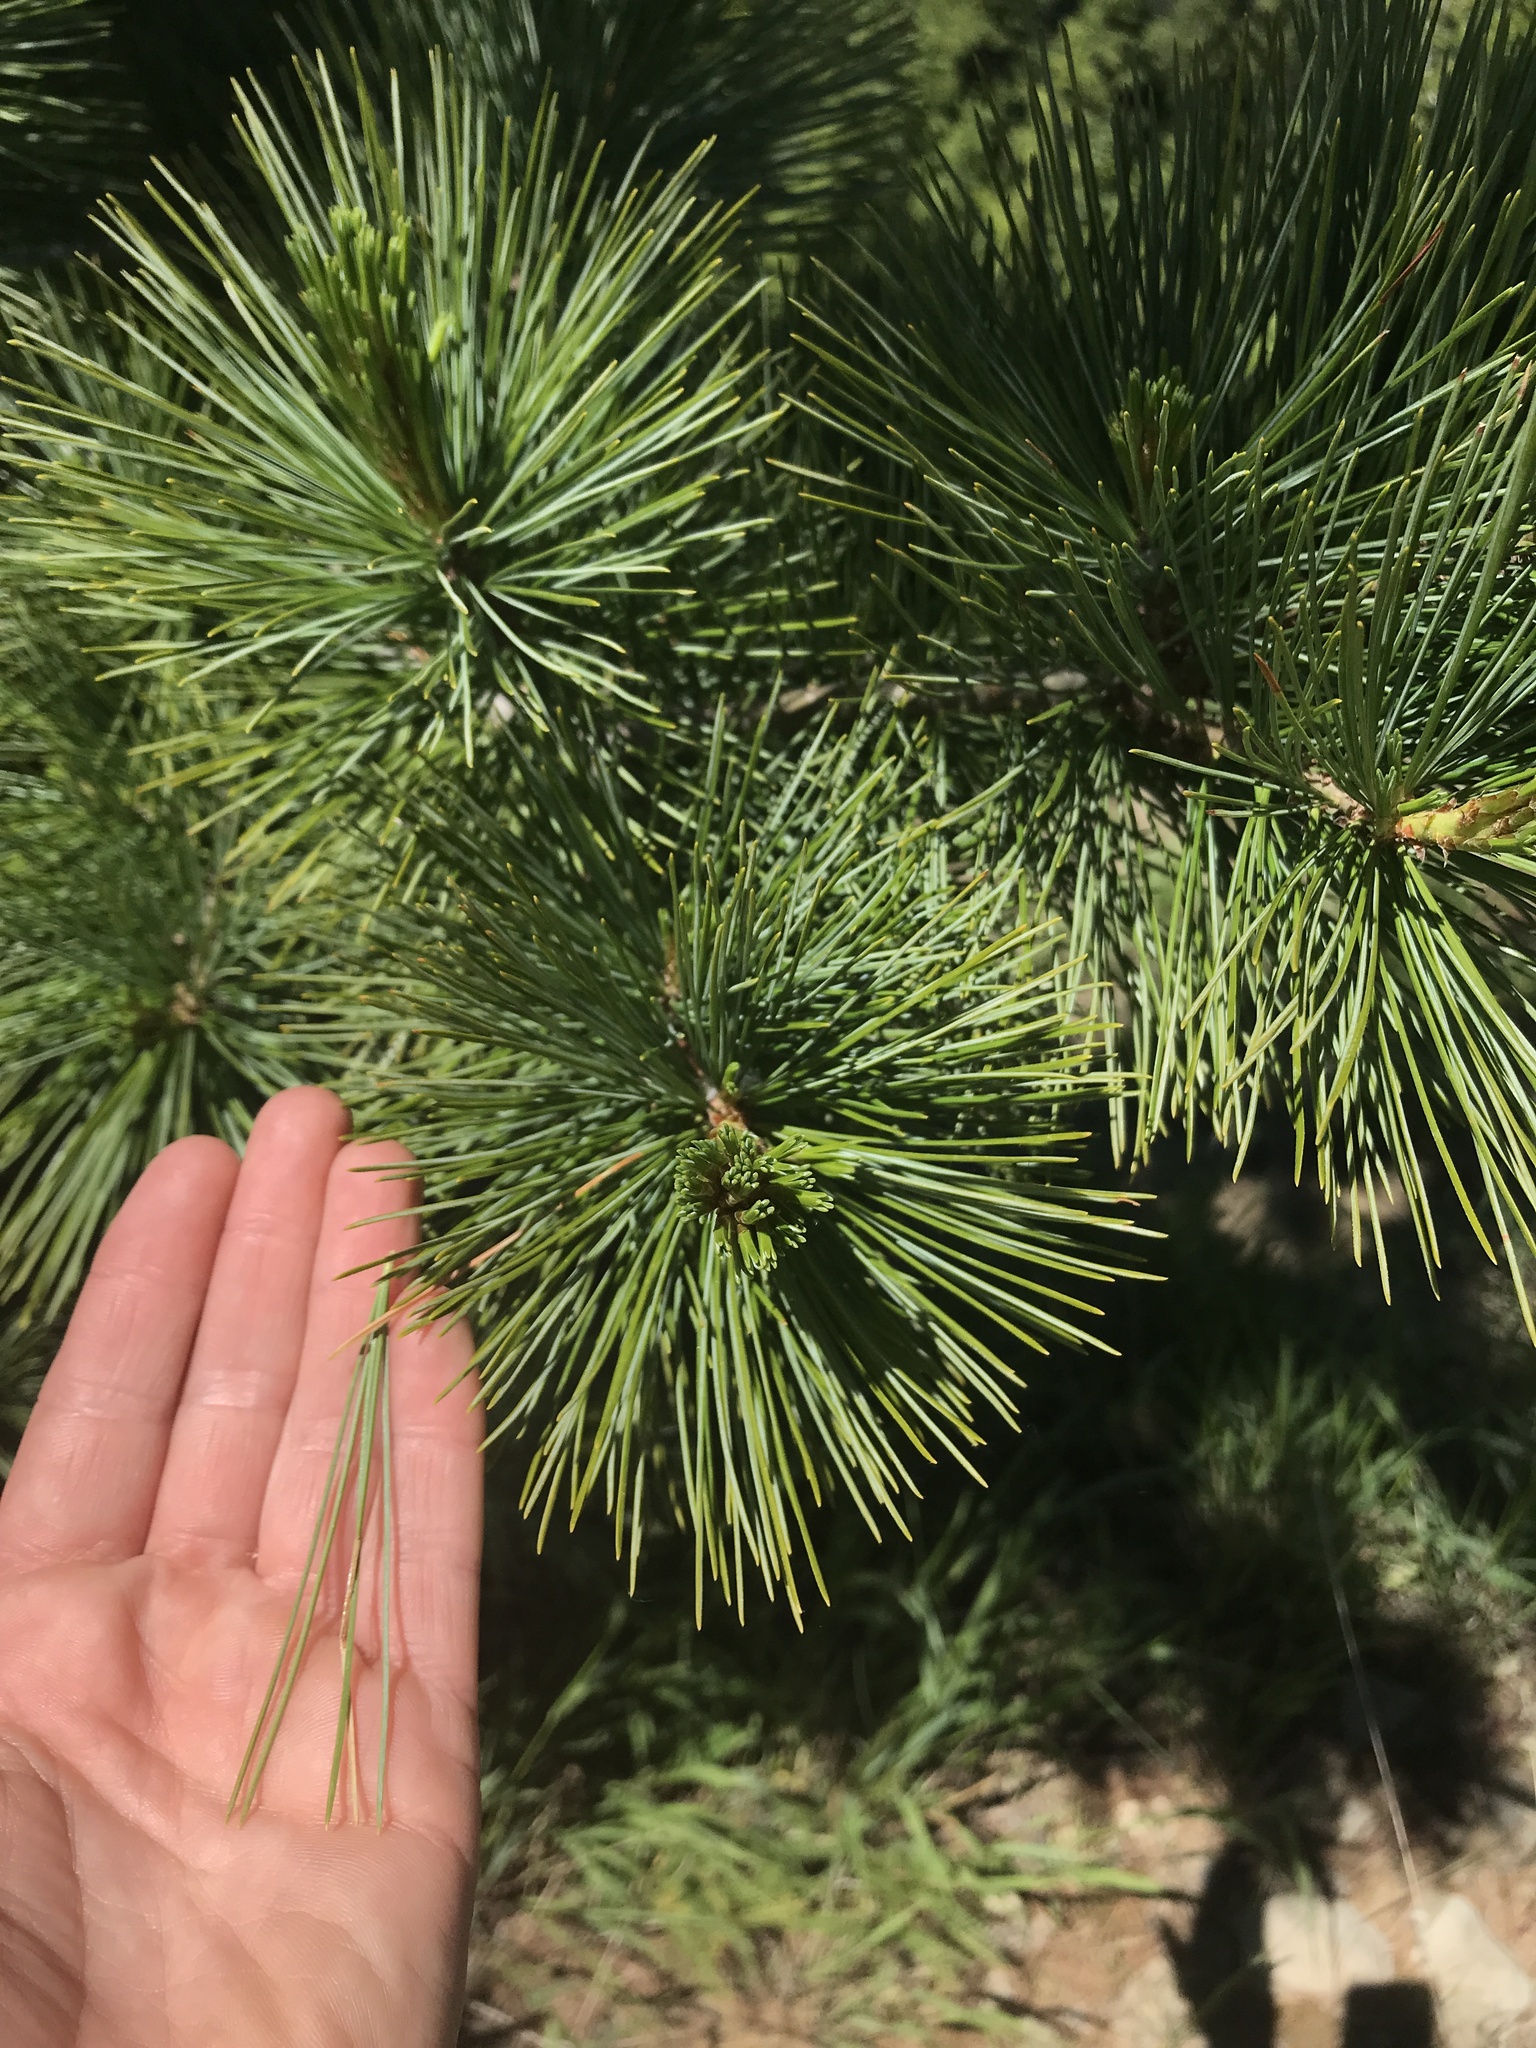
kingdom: Plantae
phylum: Tracheophyta
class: Pinopsida
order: Pinales
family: Pinaceae
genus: Pinus
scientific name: Pinus monticola
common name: Western white pine
